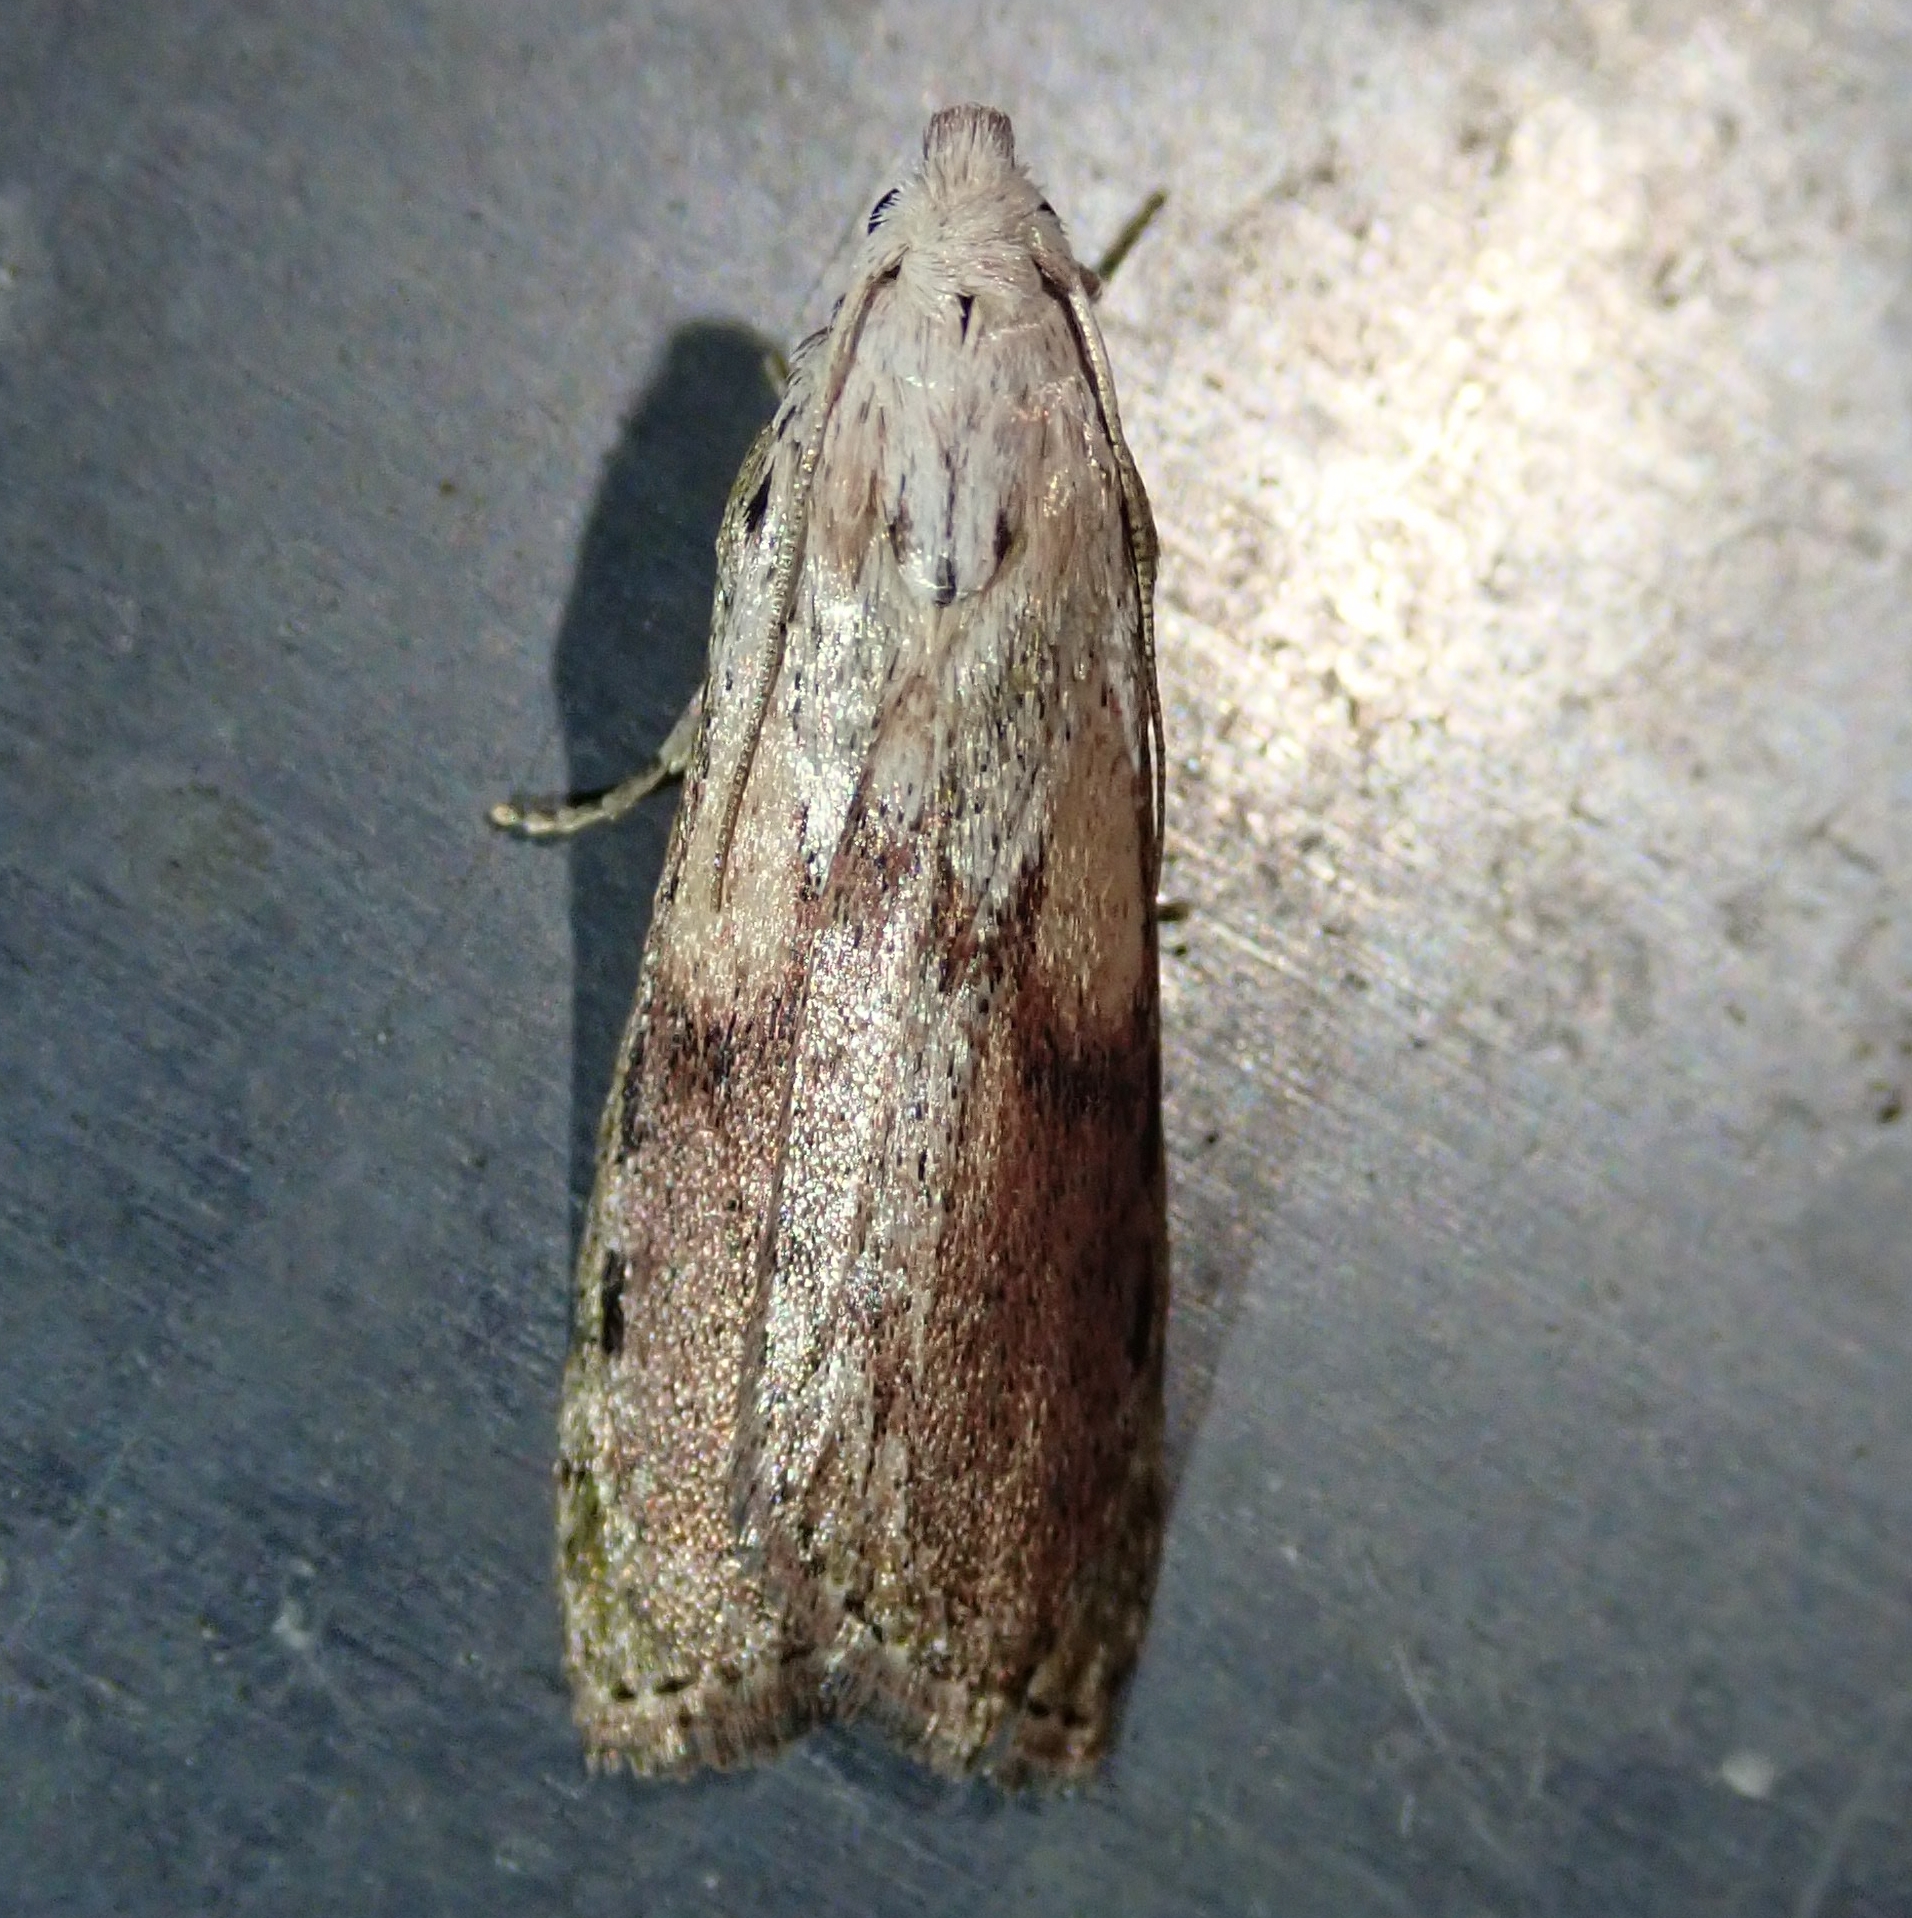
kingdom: Animalia
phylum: Arthropoda
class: Insecta
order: Lepidoptera
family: Pyralidae
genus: Aphomia
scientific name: Aphomia sociella
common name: Bee moth
